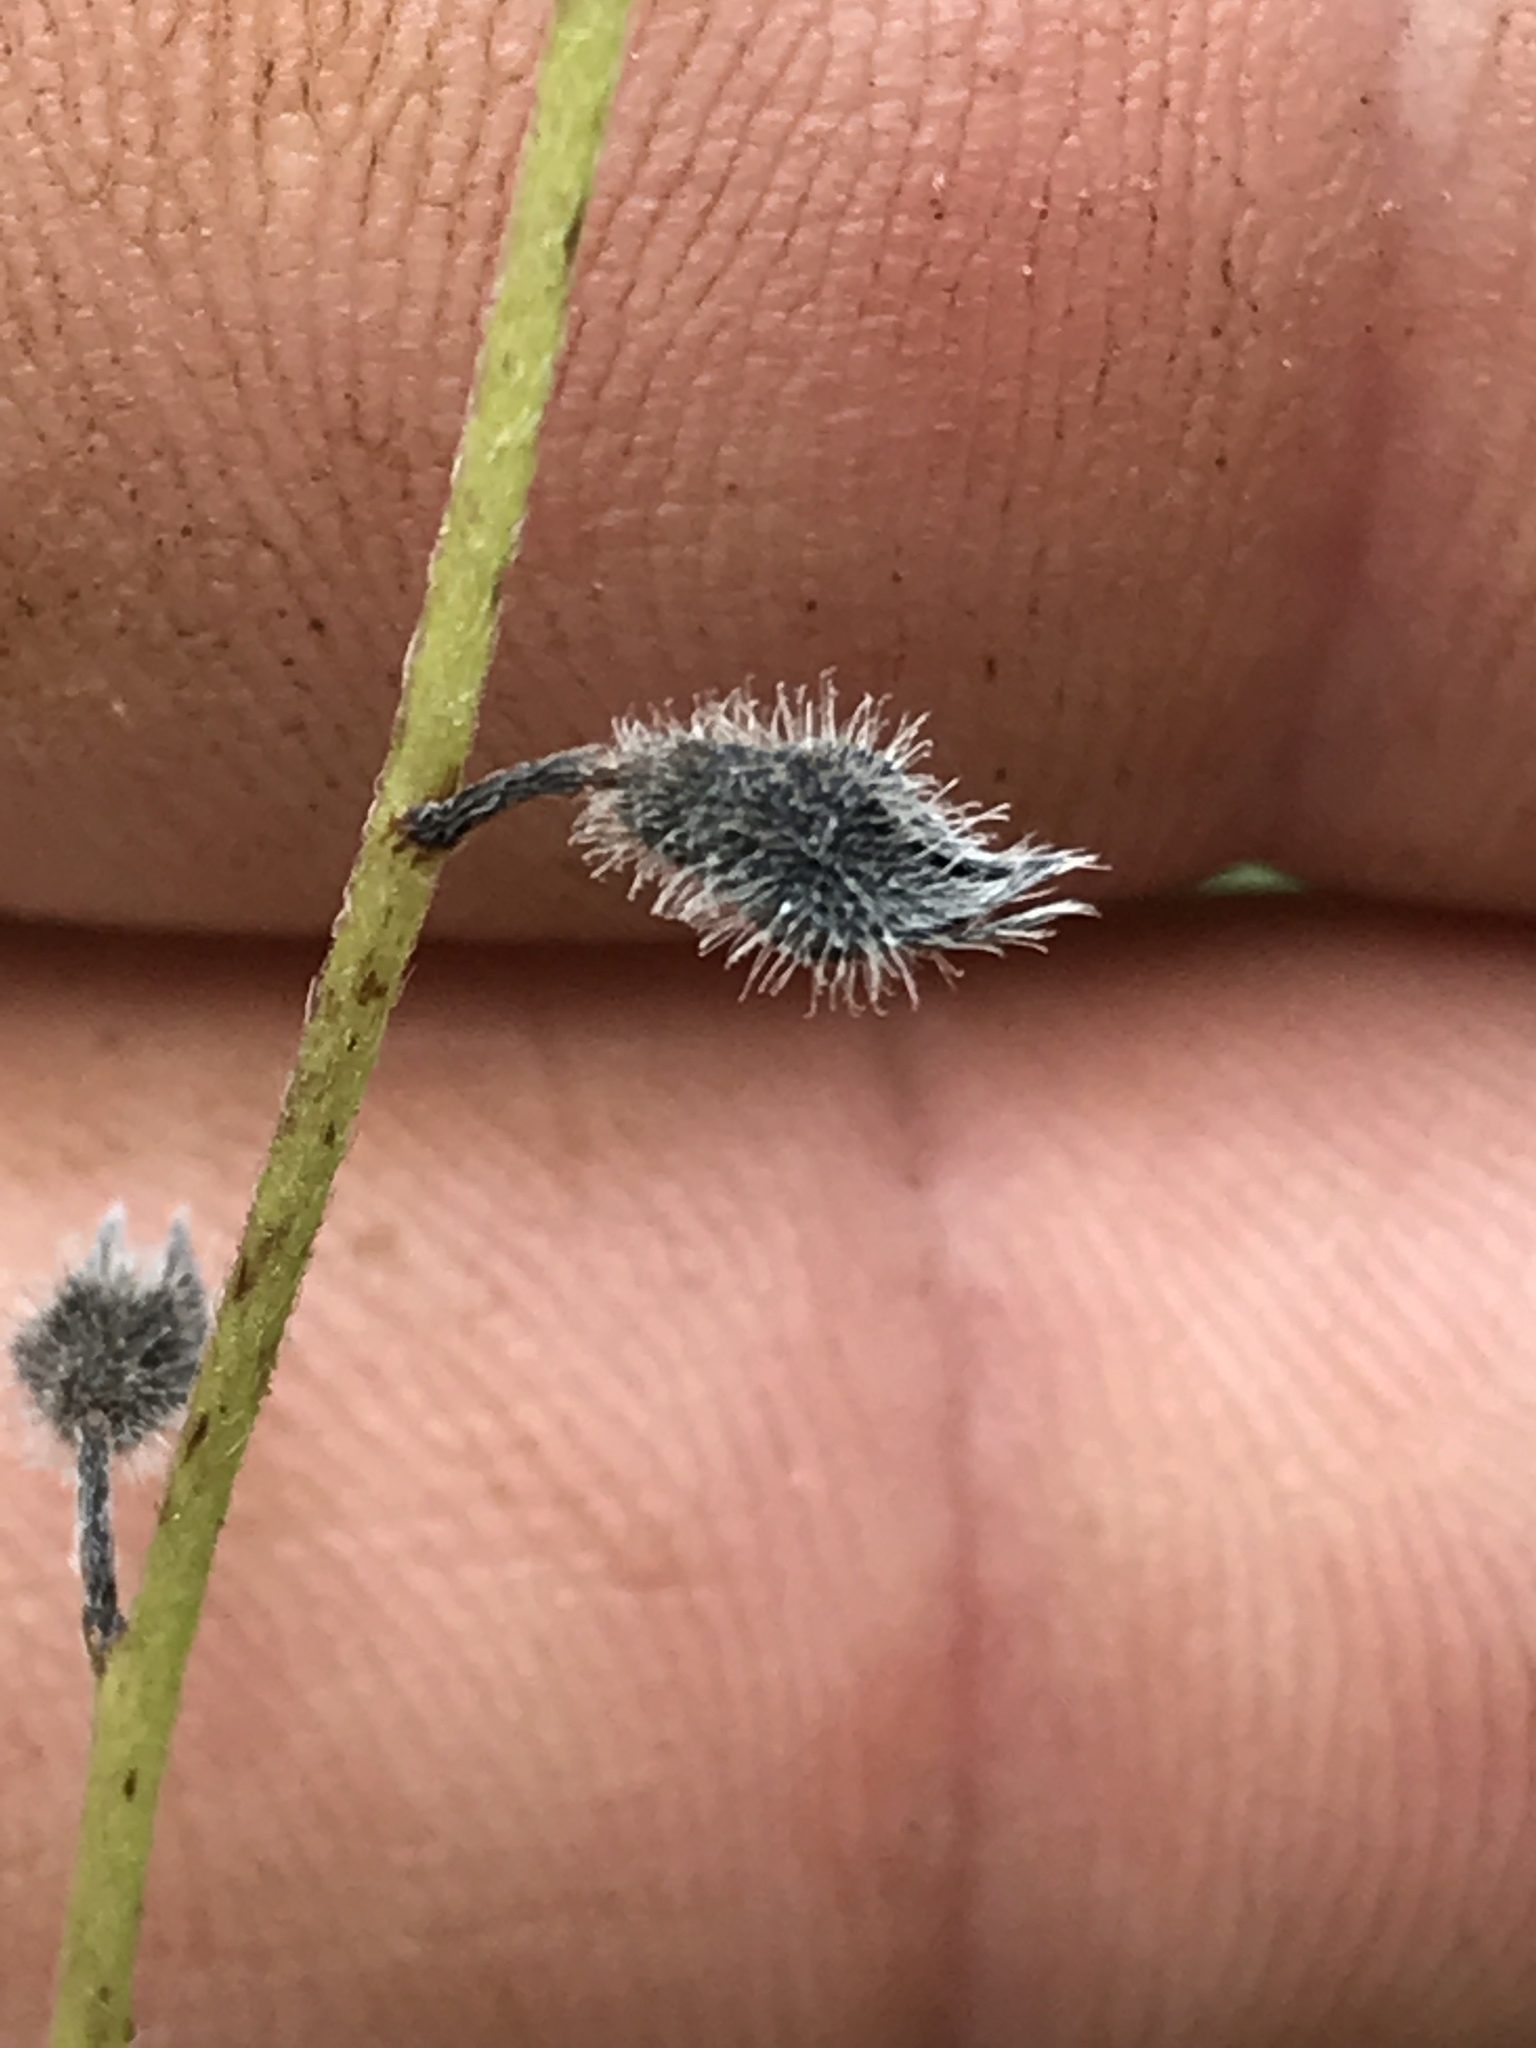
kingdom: Plantae
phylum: Tracheophyta
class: Magnoliopsida
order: Boraginales
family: Boraginaceae
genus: Myosotis
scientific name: Myosotis macrosperma
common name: Large-seed forget-me-not
